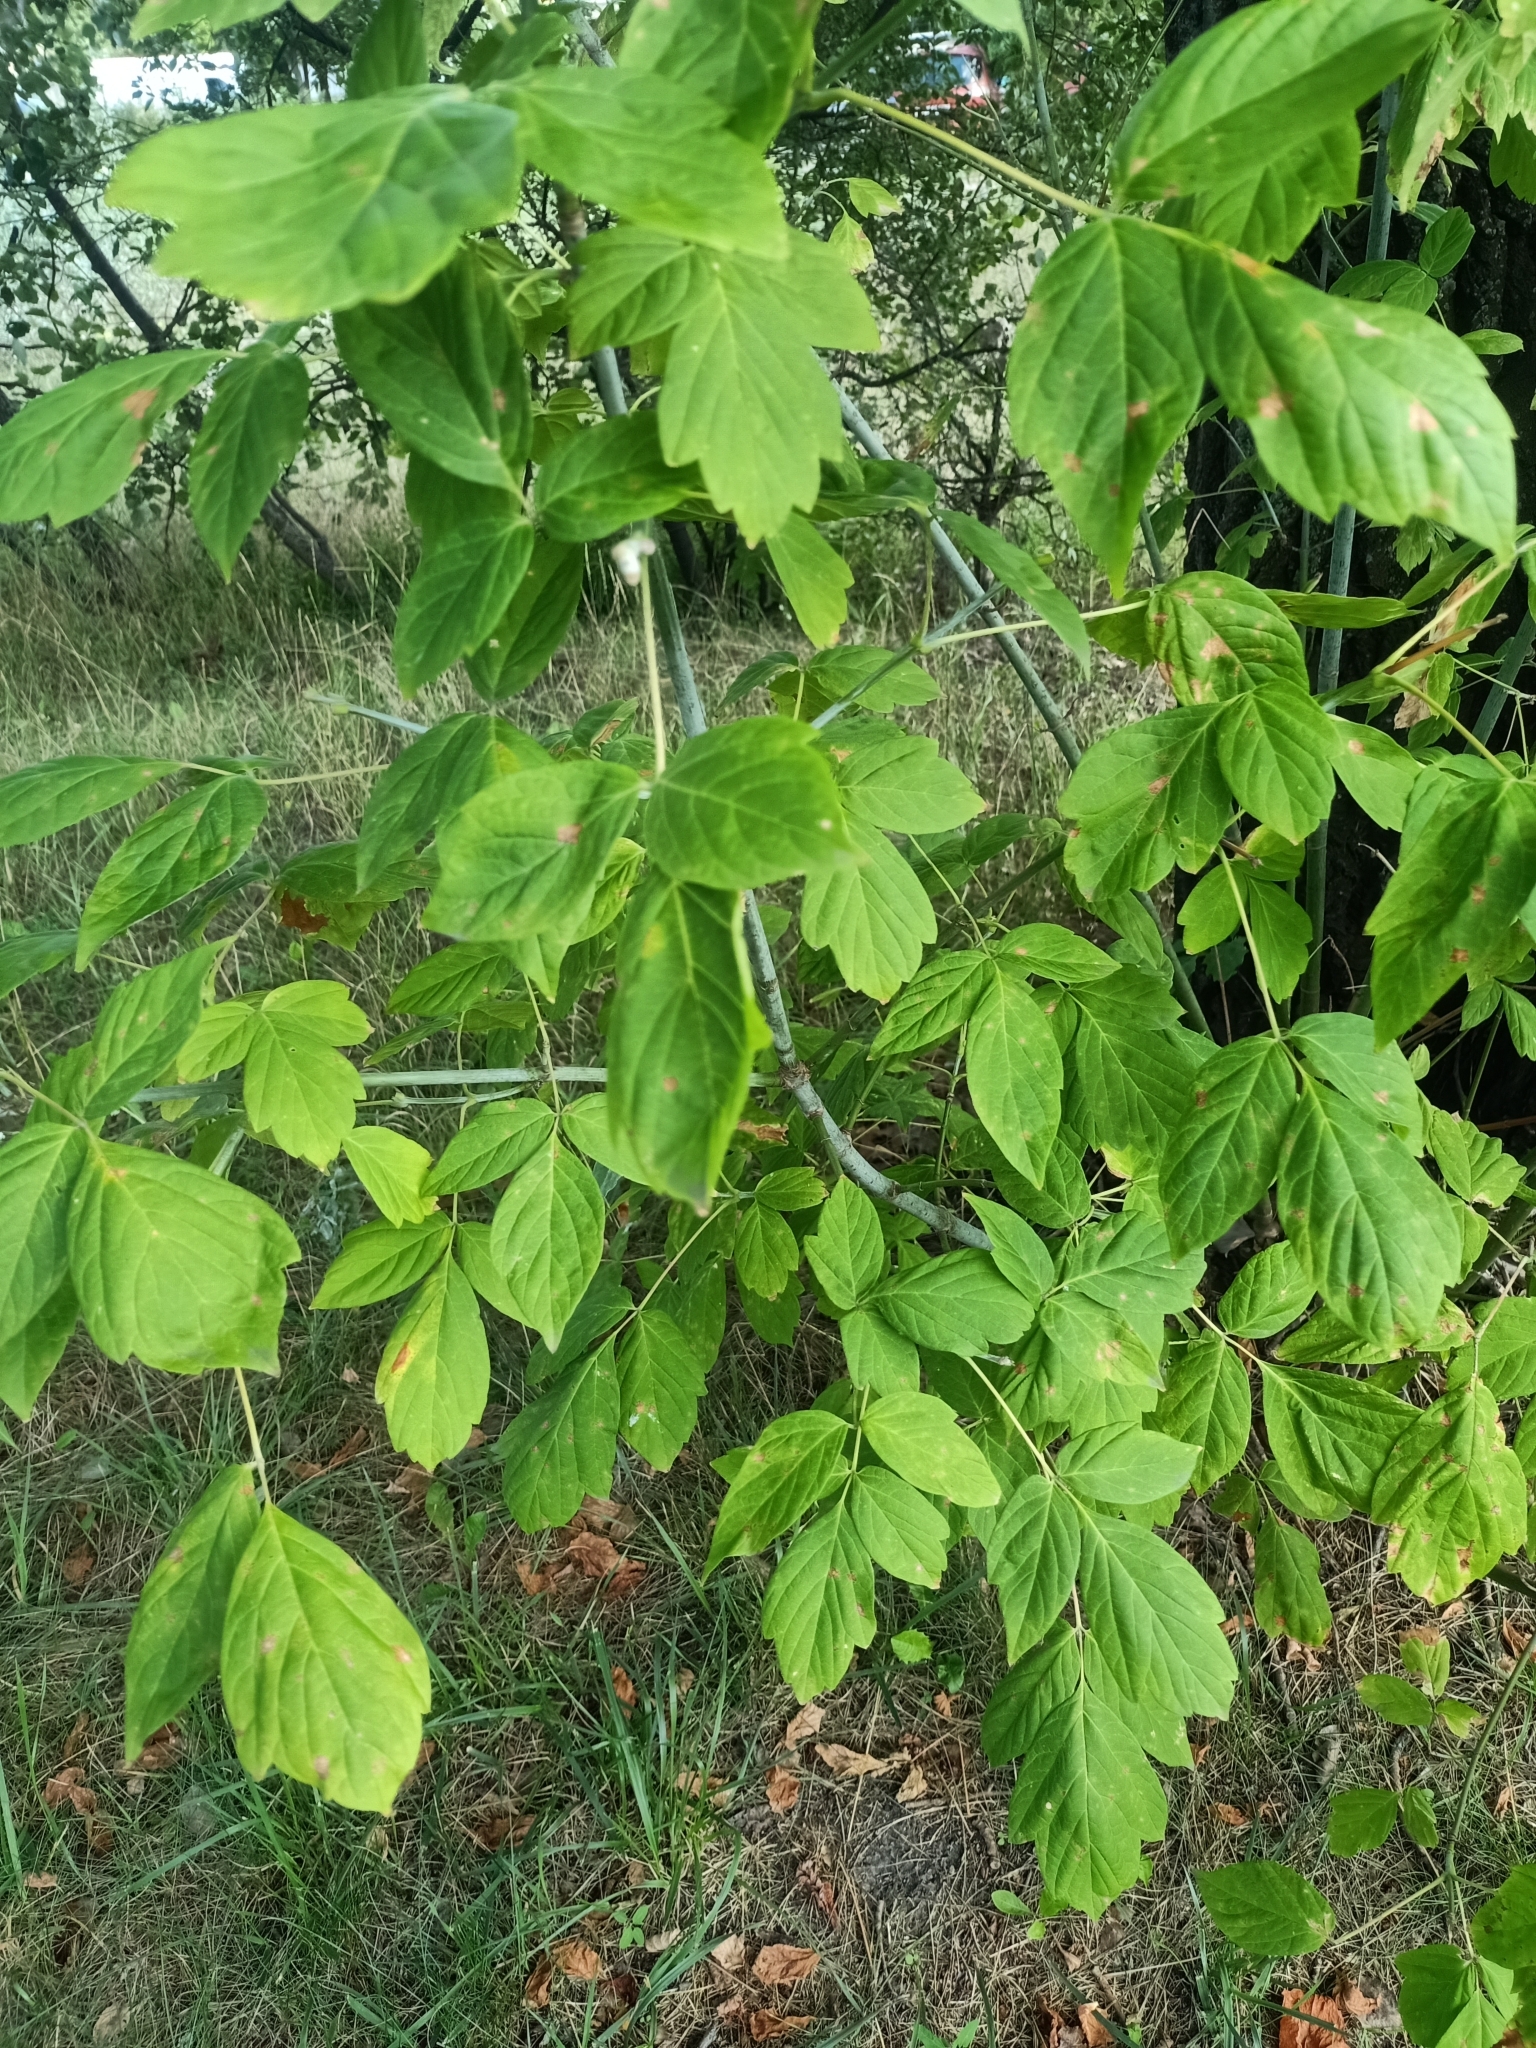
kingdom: Plantae
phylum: Tracheophyta
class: Magnoliopsida
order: Sapindales
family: Sapindaceae
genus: Acer
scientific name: Acer negundo
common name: Ashleaf maple
